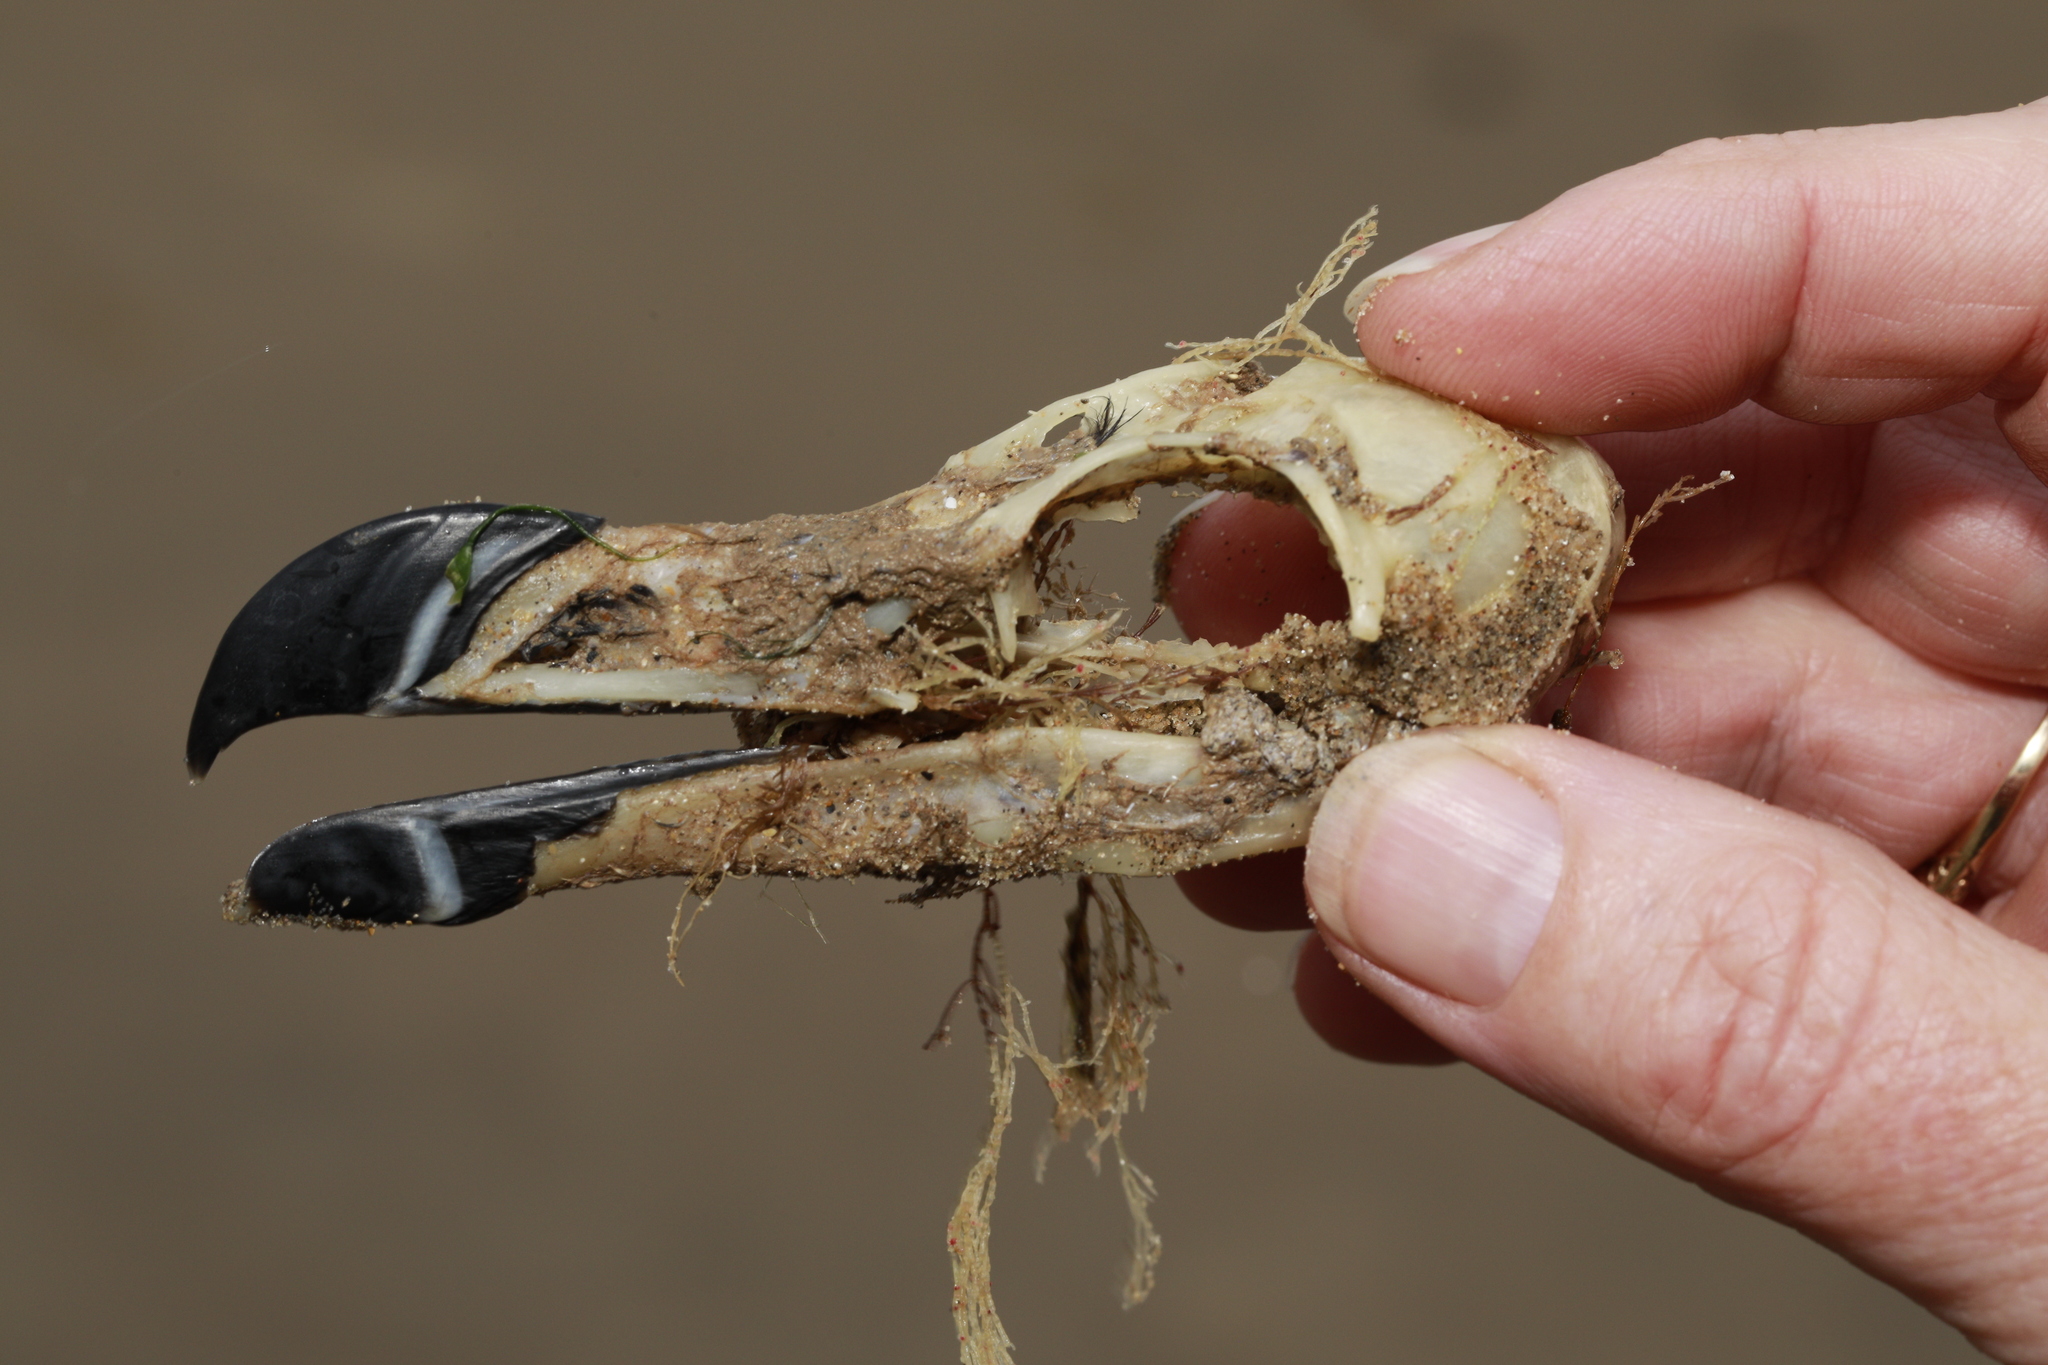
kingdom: Animalia
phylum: Chordata
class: Aves
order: Charadriiformes
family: Alcidae
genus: Alca
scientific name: Alca torda
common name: Razorbill
